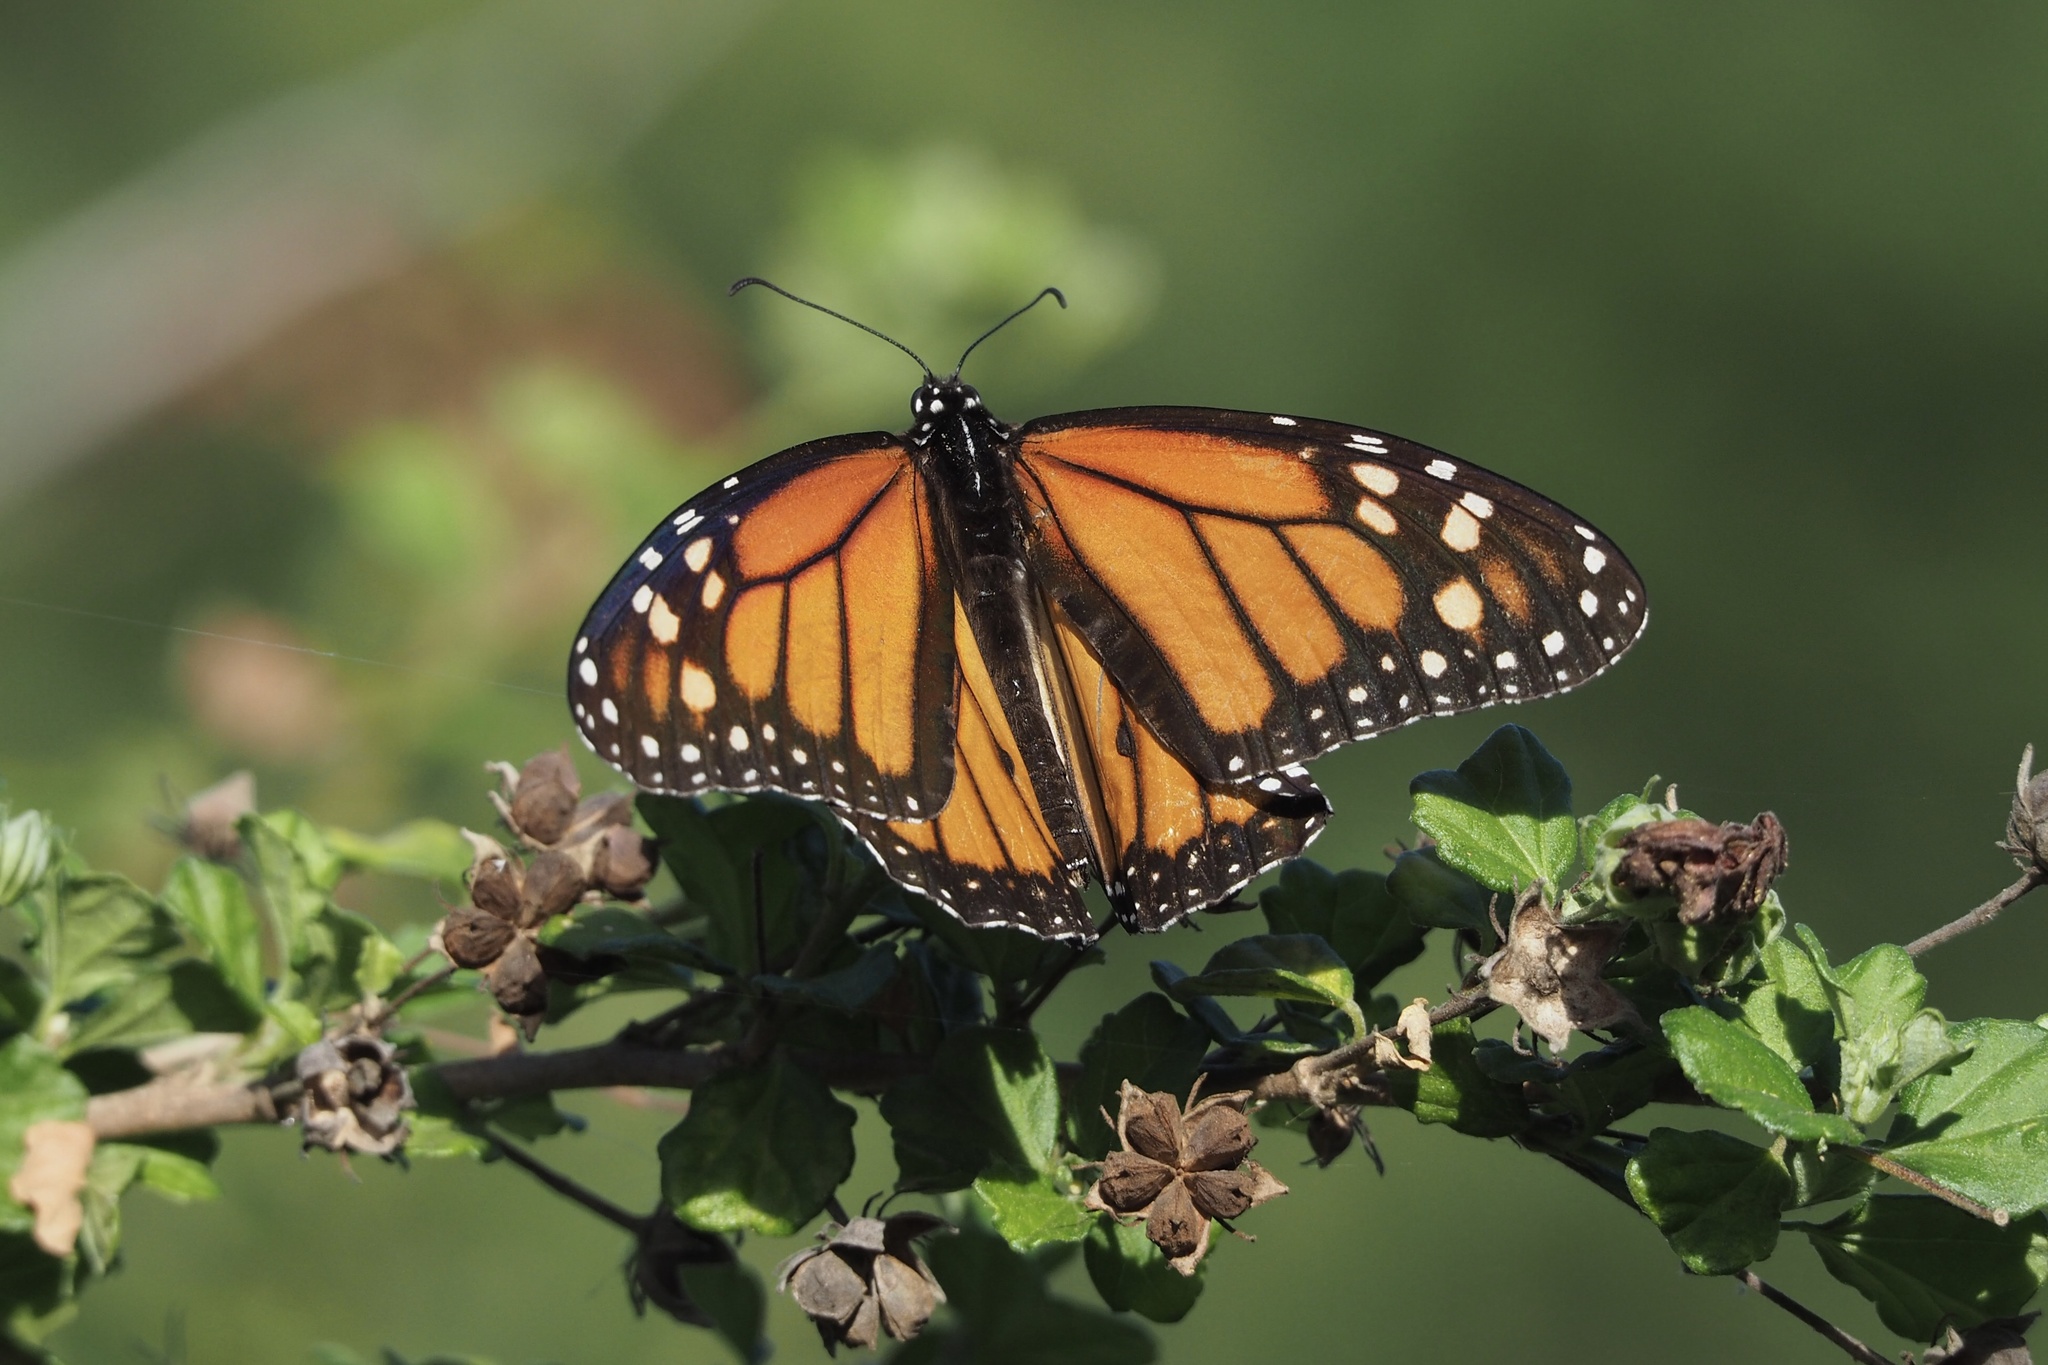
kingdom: Animalia
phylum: Arthropoda
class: Insecta
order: Lepidoptera
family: Nymphalidae
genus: Danaus
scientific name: Danaus plexippus
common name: Monarch
